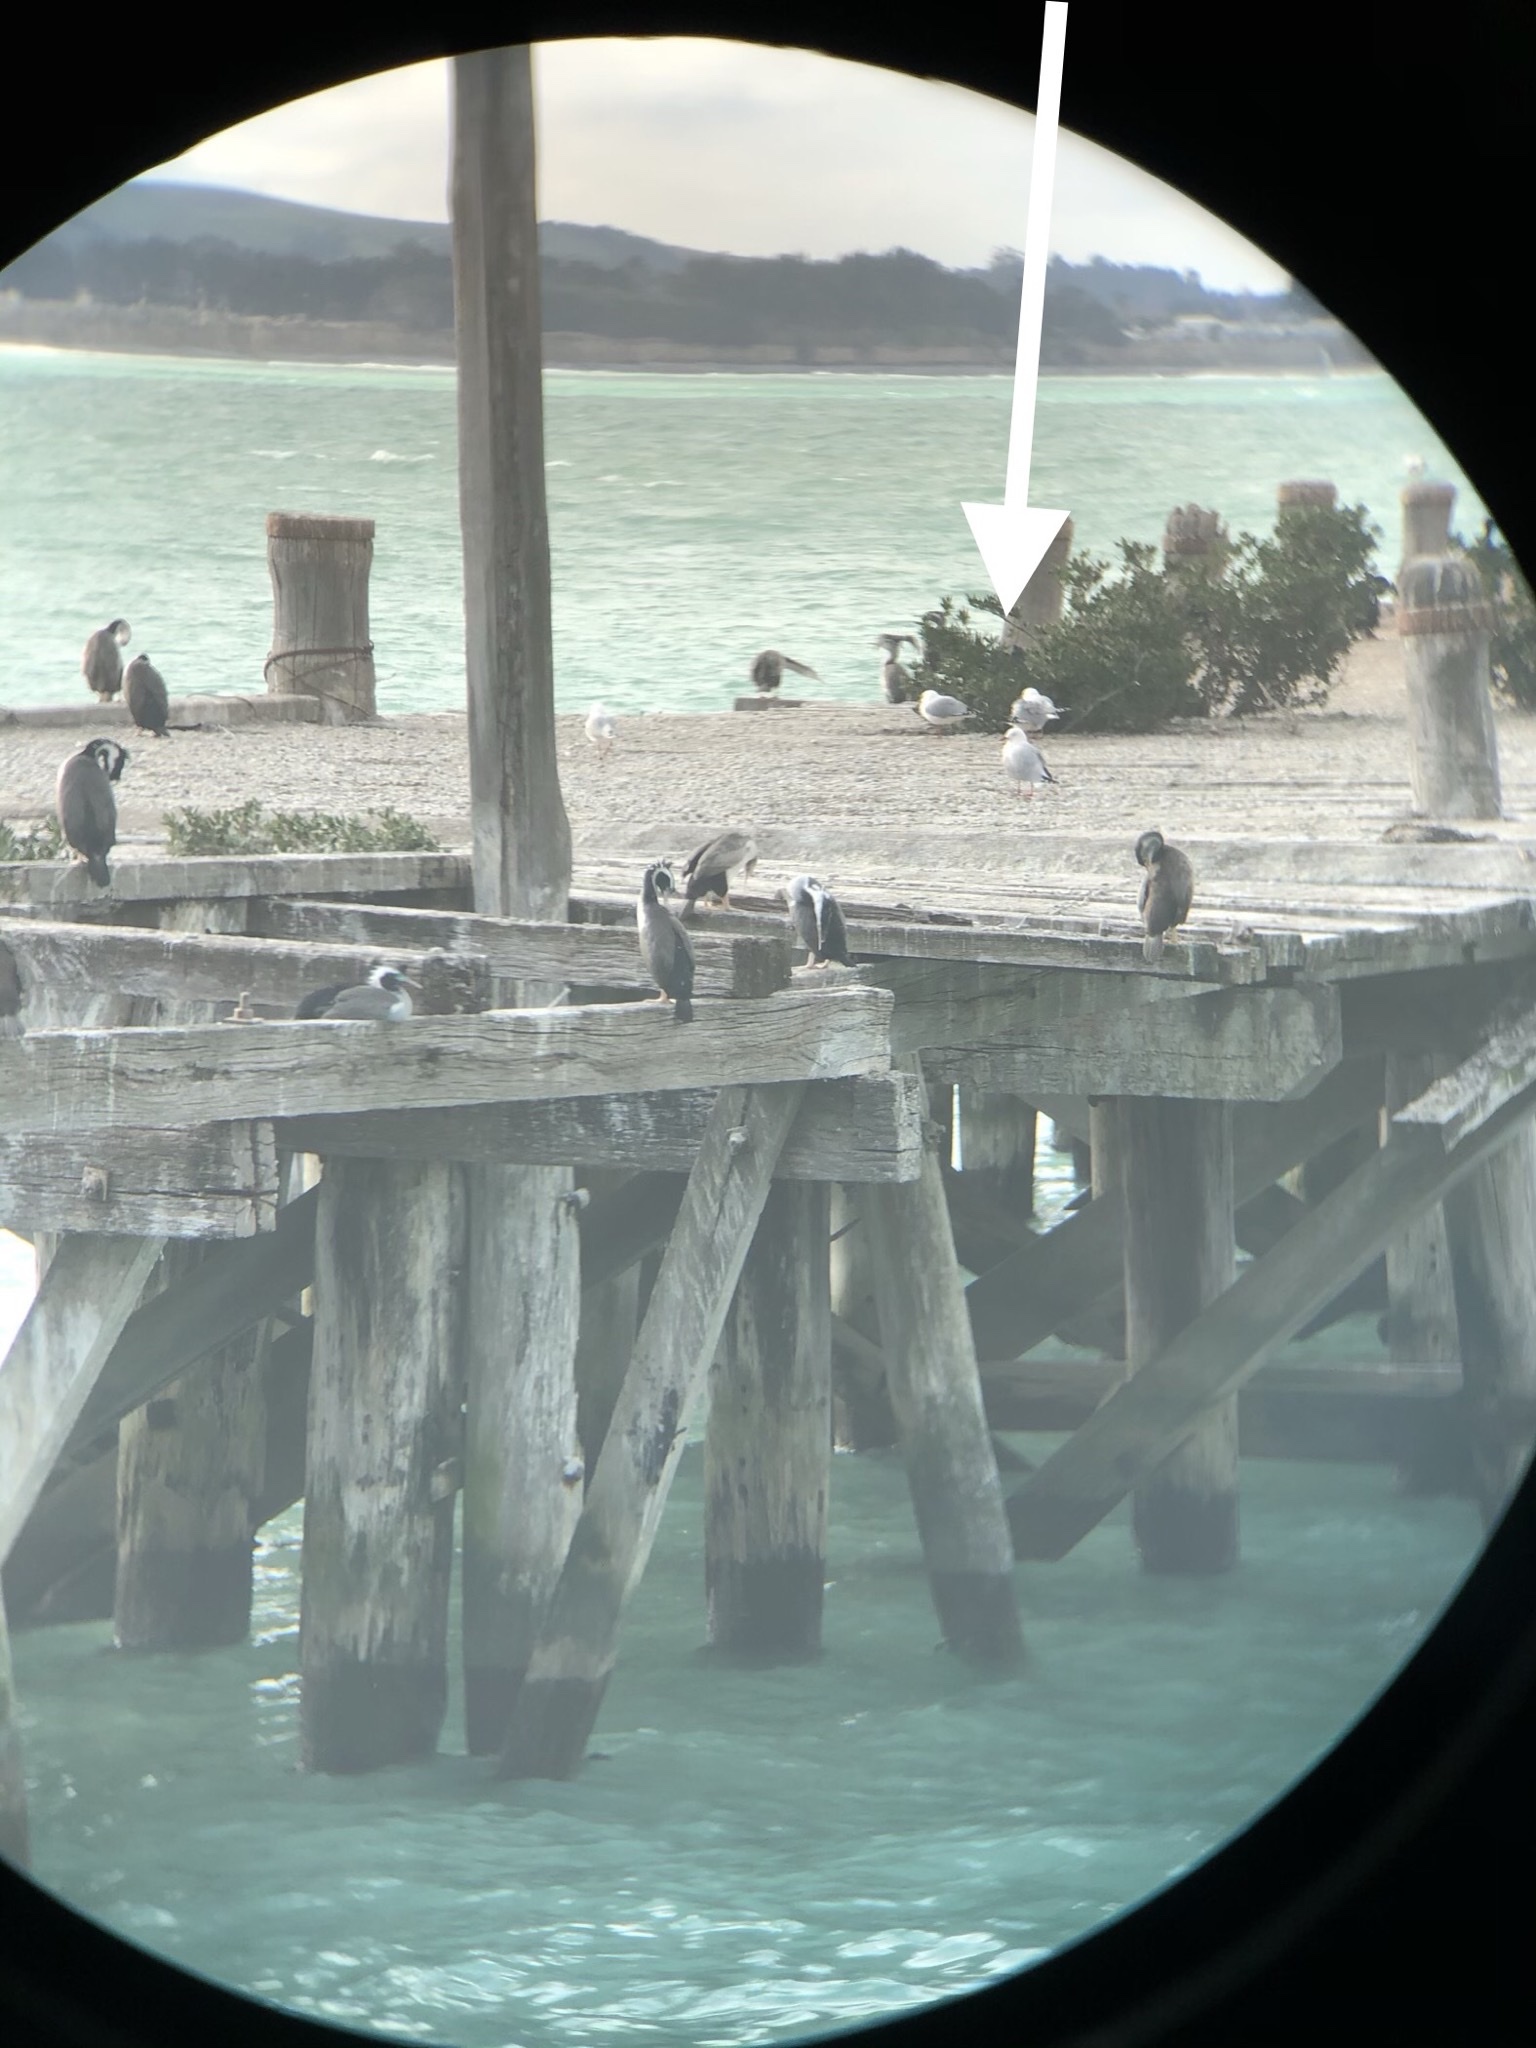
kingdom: Animalia
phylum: Chordata
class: Aves
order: Charadriiformes
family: Laridae
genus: Chroicocephalus
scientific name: Chroicocephalus novaehollandiae
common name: Silver gull
